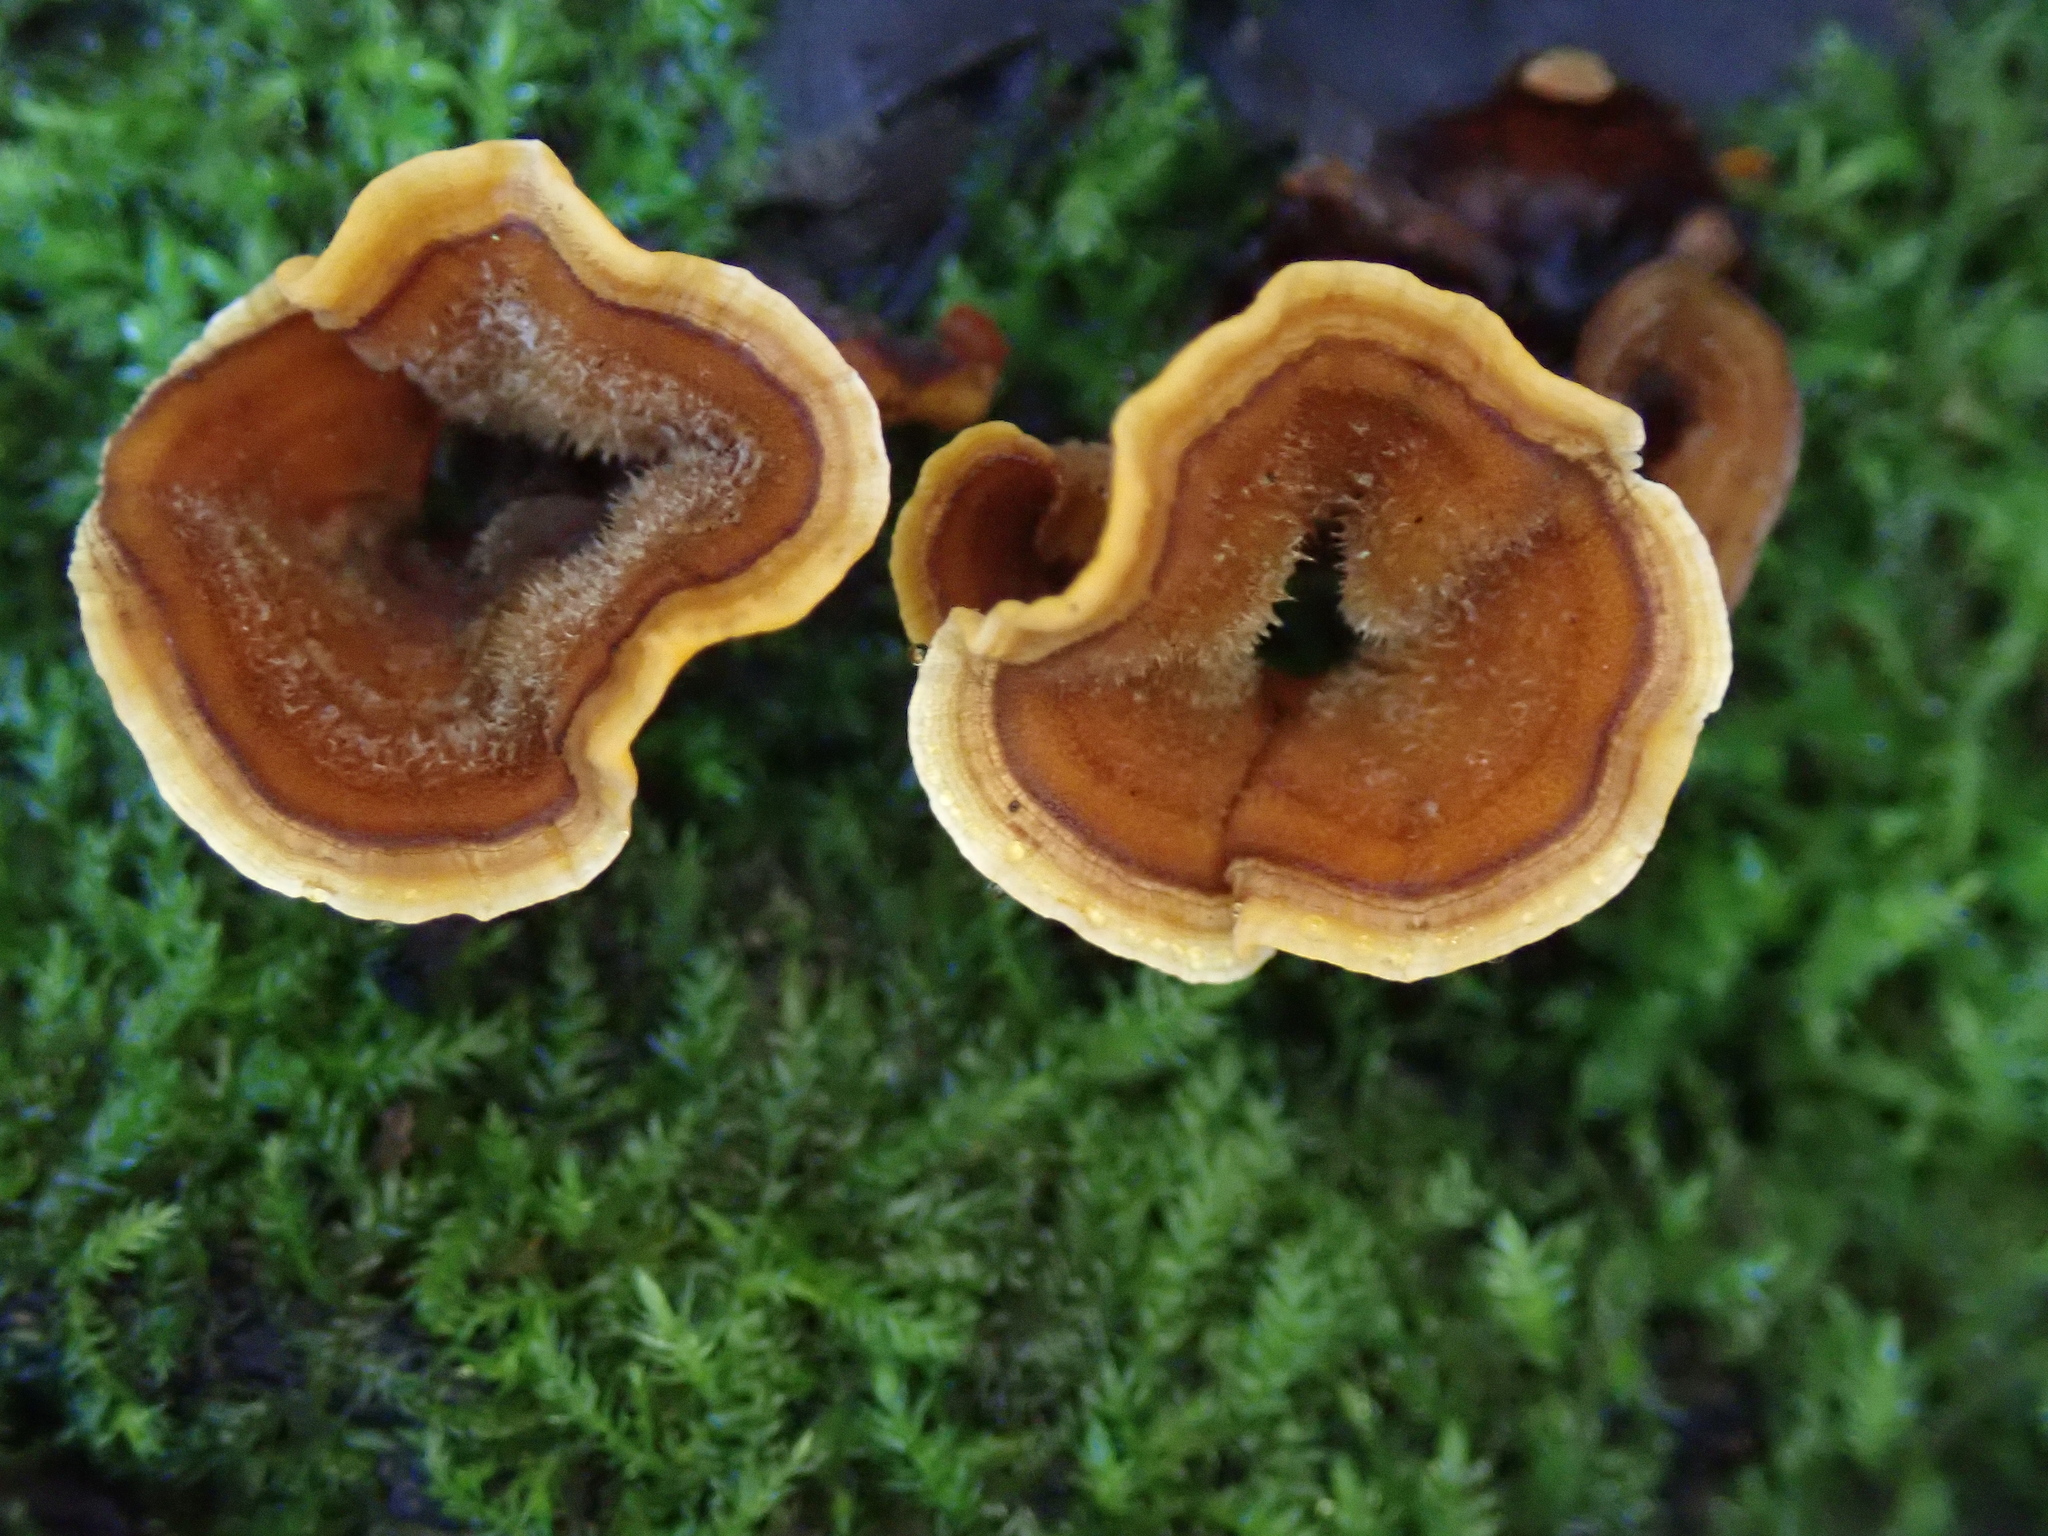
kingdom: Fungi
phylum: Basidiomycota
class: Agaricomycetes
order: Russulales
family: Stereaceae
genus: Stereum
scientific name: Stereum hirsutum
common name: Hairy curtain crust
